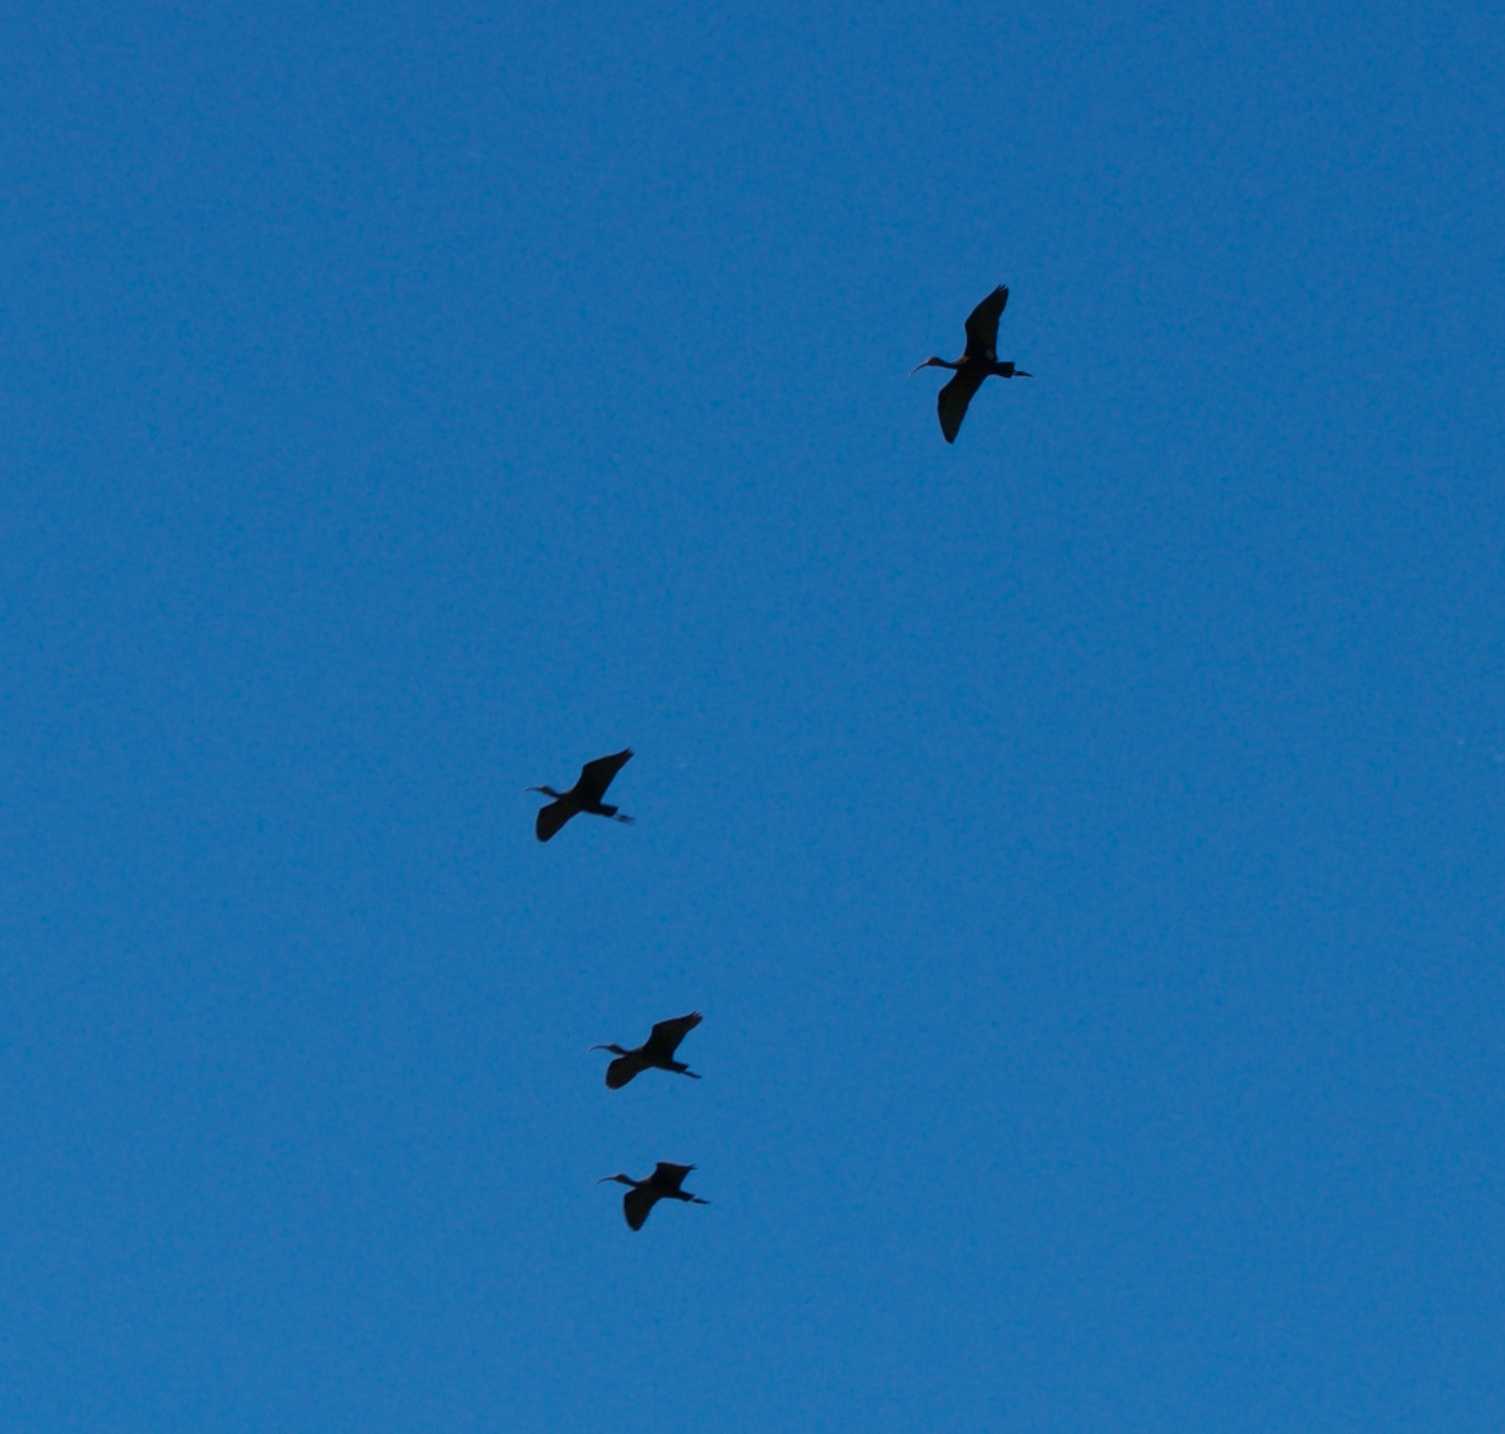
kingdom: Animalia
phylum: Chordata
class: Aves
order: Pelecaniformes
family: Threskiornithidae
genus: Plegadis
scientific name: Plegadis chihi
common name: White-faced ibis
